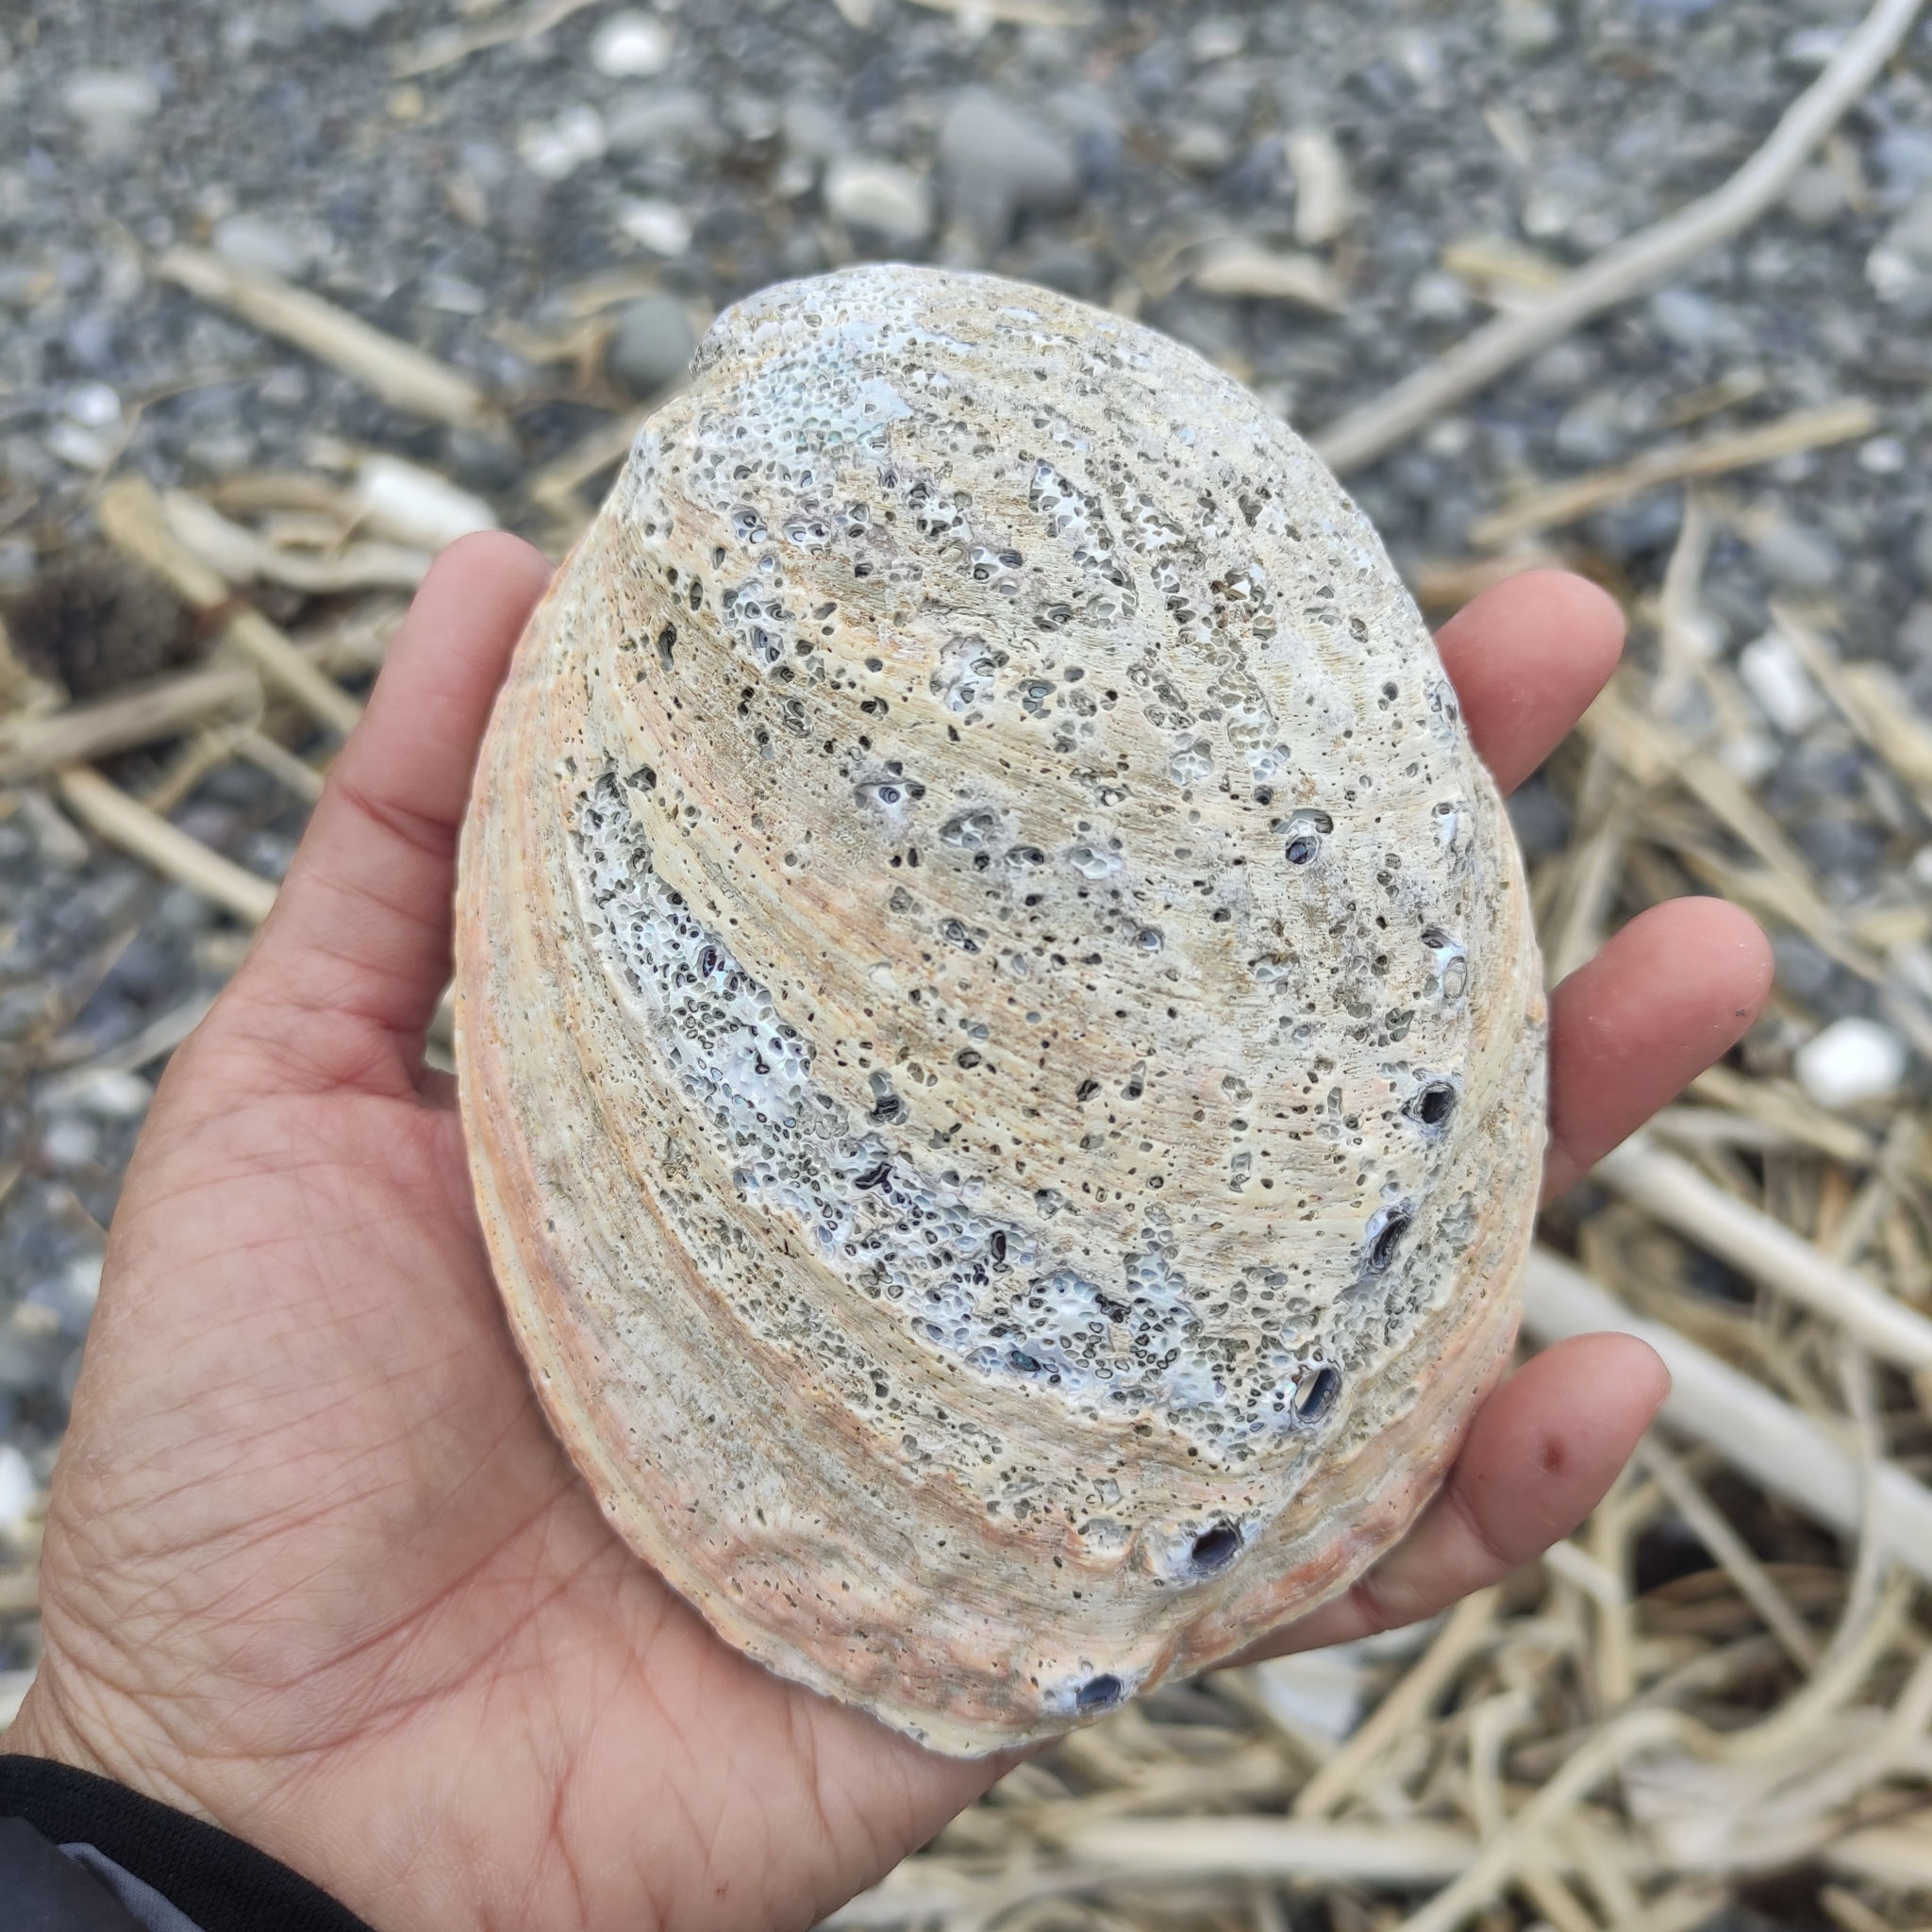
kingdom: Animalia
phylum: Mollusca
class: Gastropoda
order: Lepetellida
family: Haliotidae
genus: Haliotis
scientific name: Haliotis iris
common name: Abalone
